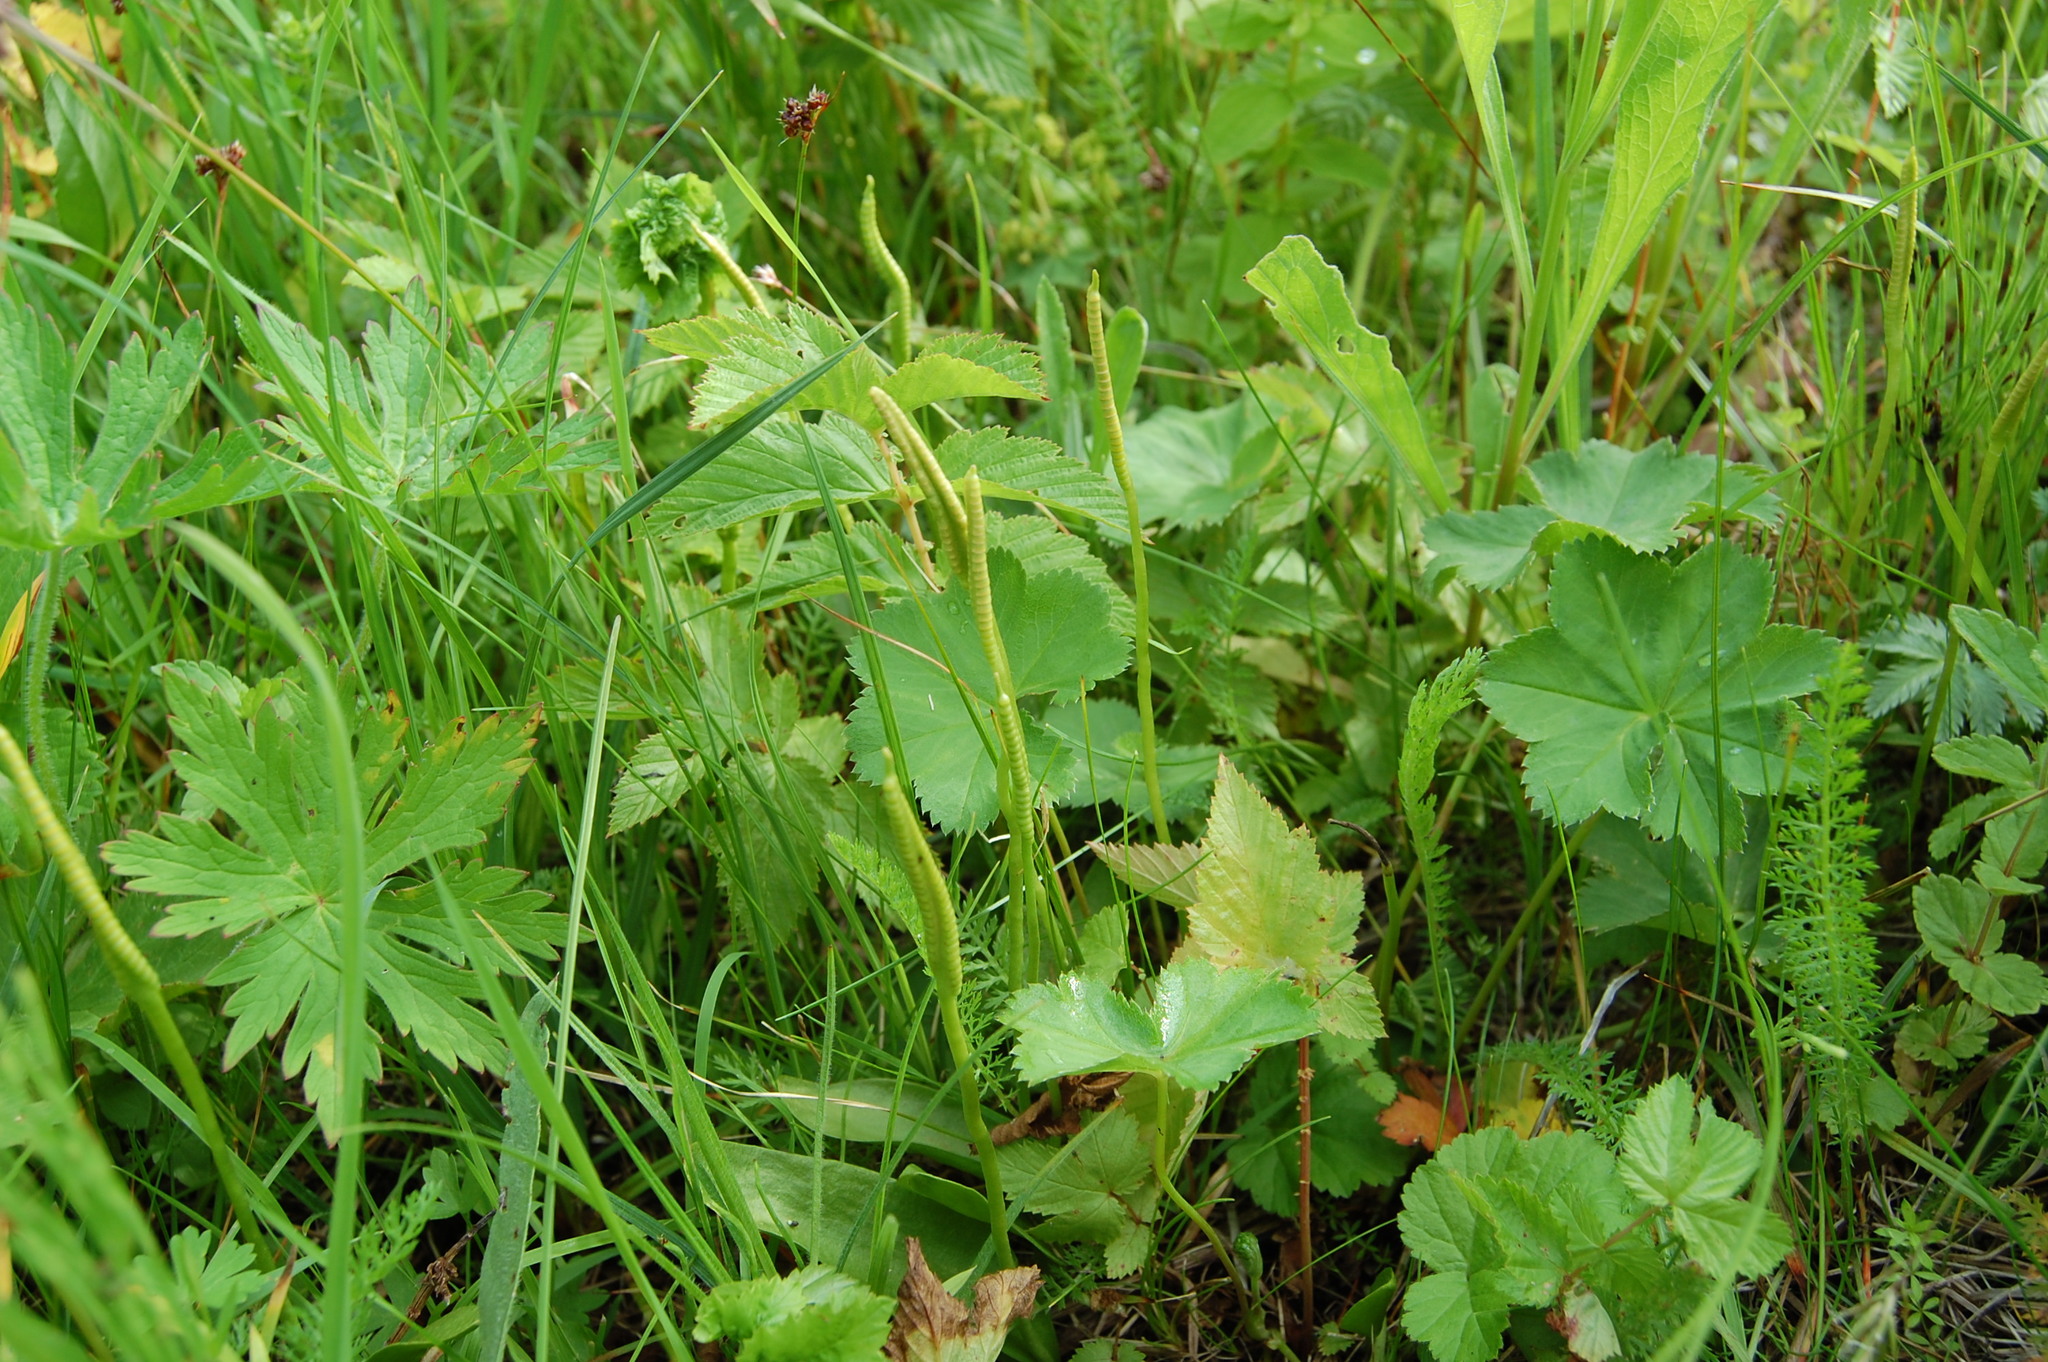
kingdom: Plantae
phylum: Tracheophyta
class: Polypodiopsida
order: Ophioglossales
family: Ophioglossaceae
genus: Ophioglossum
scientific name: Ophioglossum vulgatum
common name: Adder's-tongue
